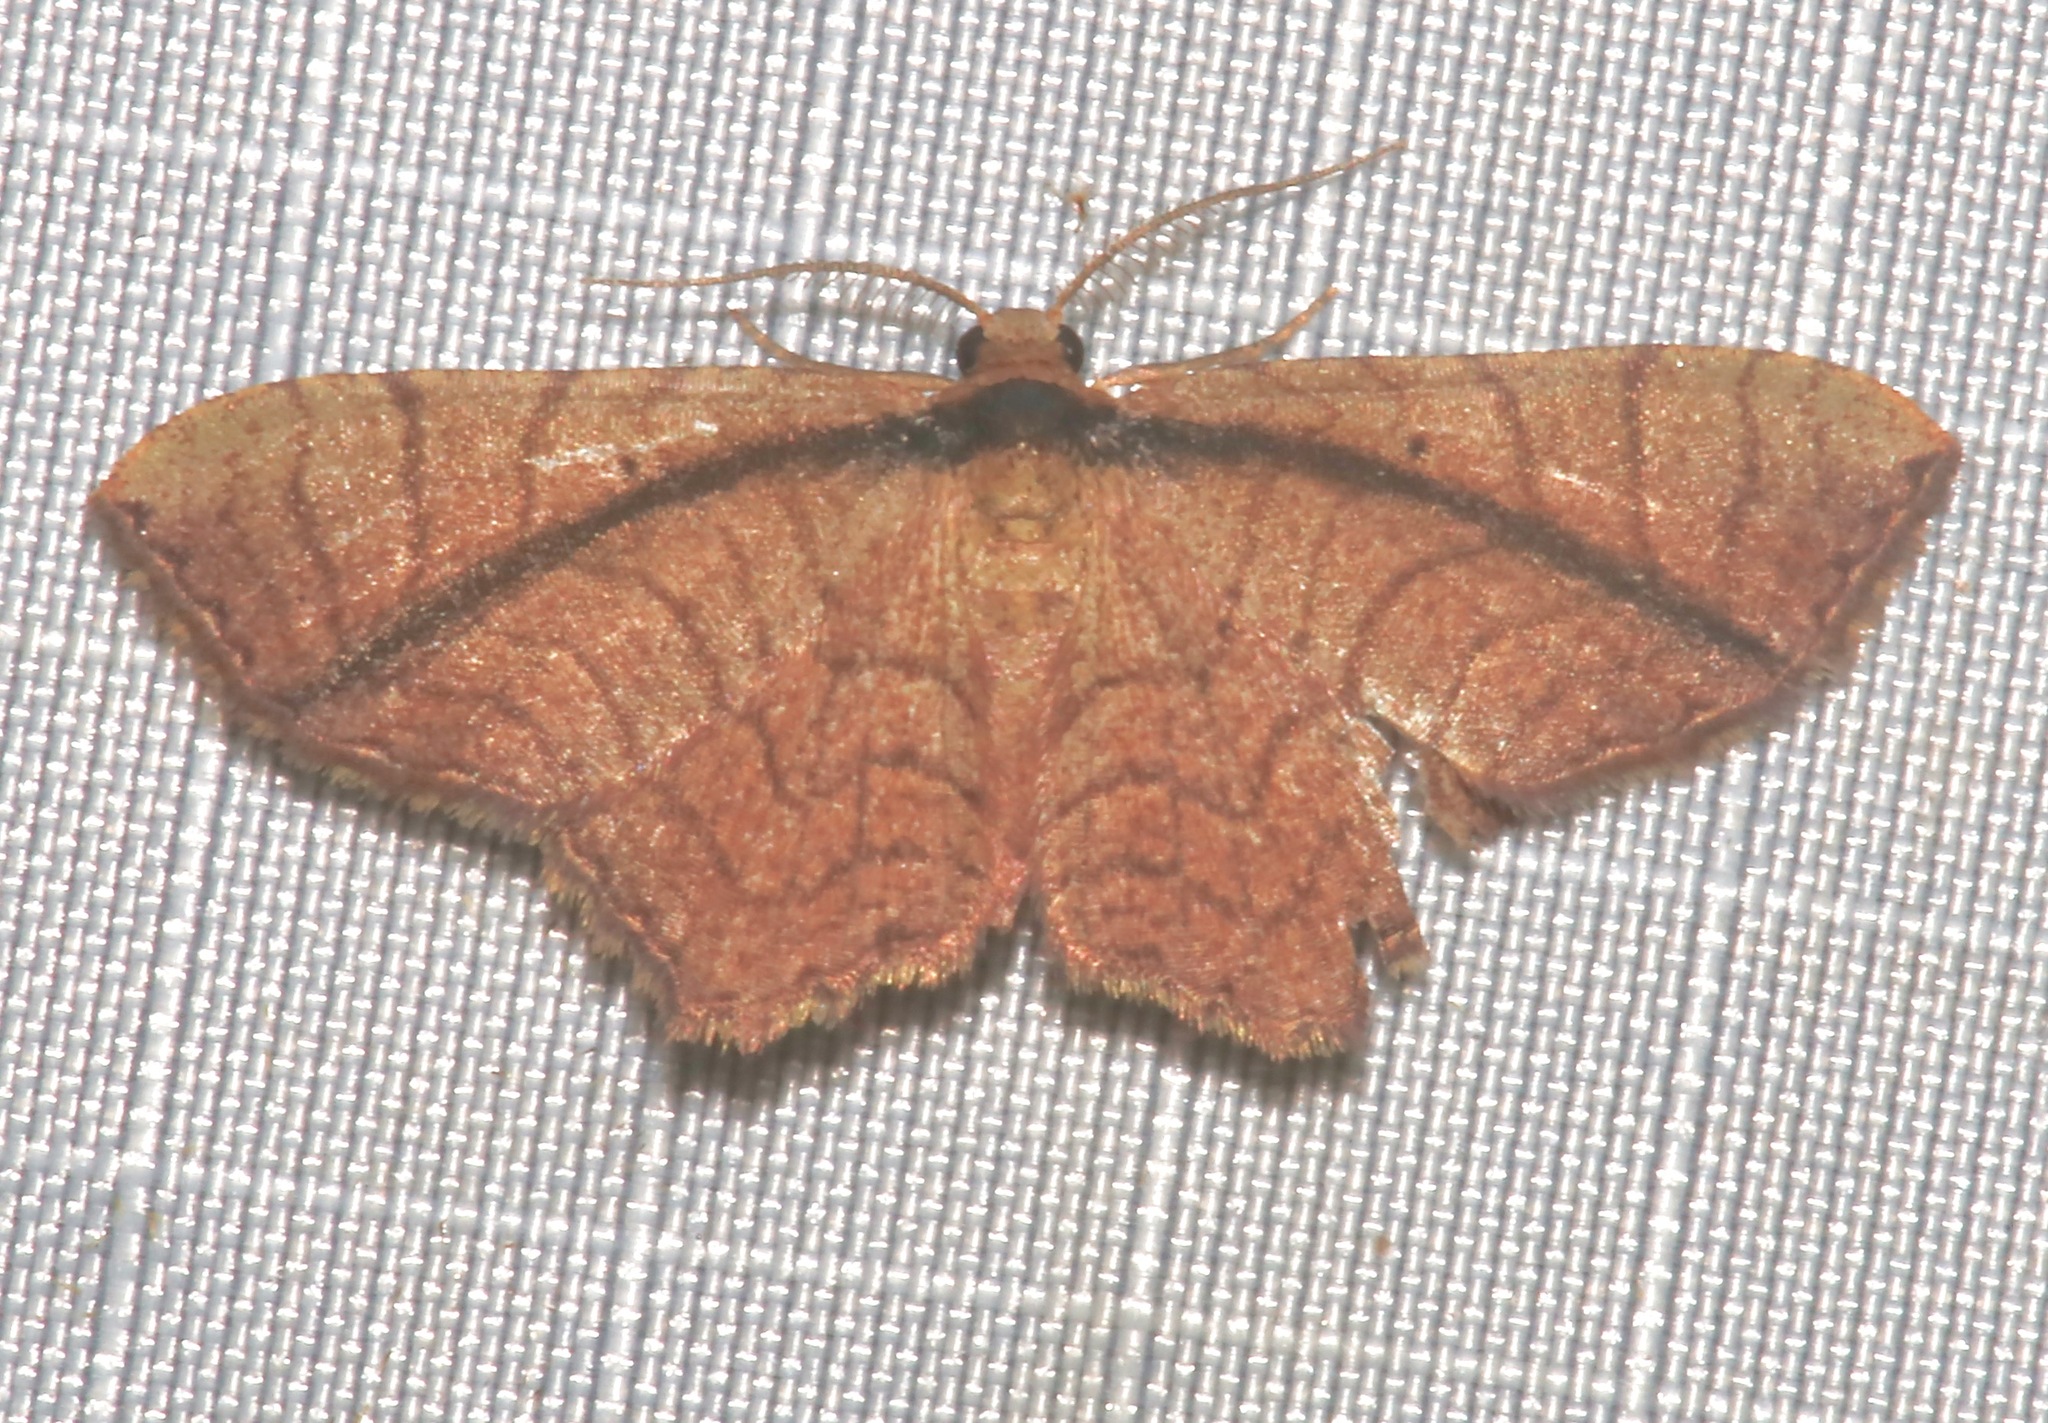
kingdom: Animalia
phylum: Arthropoda
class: Insecta
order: Lepidoptera
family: Geometridae
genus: Eois
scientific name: Eois mediostrigata
